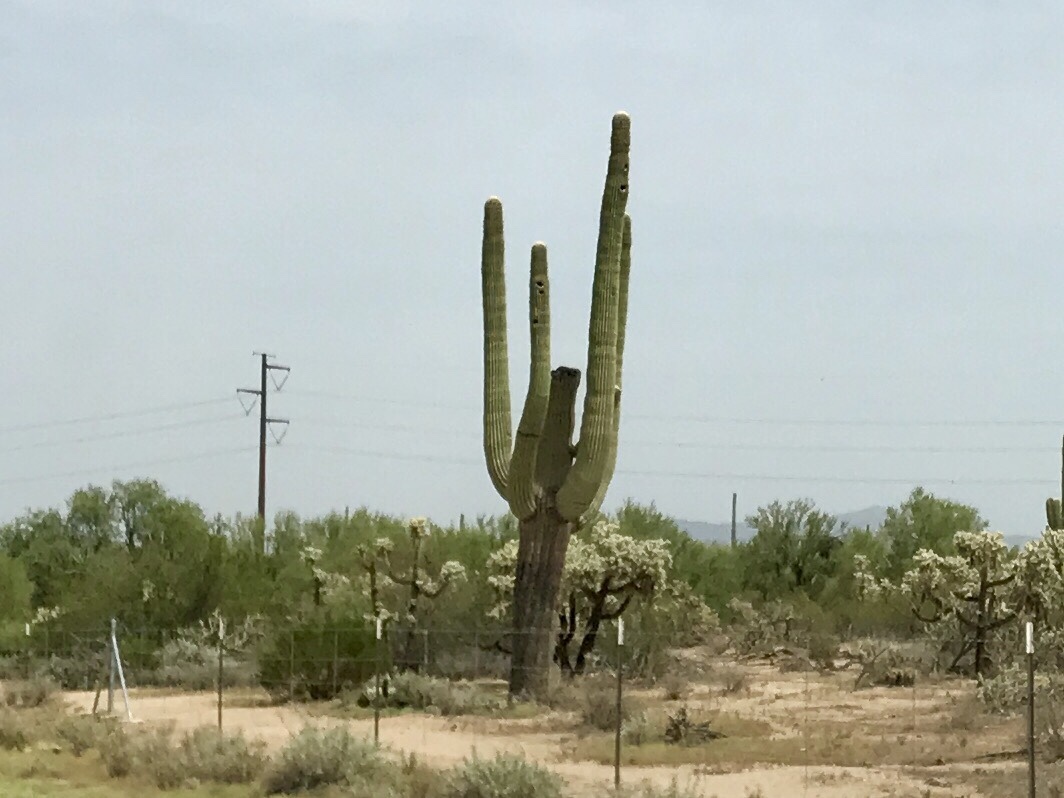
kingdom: Plantae
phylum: Tracheophyta
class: Magnoliopsida
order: Caryophyllales
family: Cactaceae
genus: Carnegiea
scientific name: Carnegiea gigantea
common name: Saguaro
